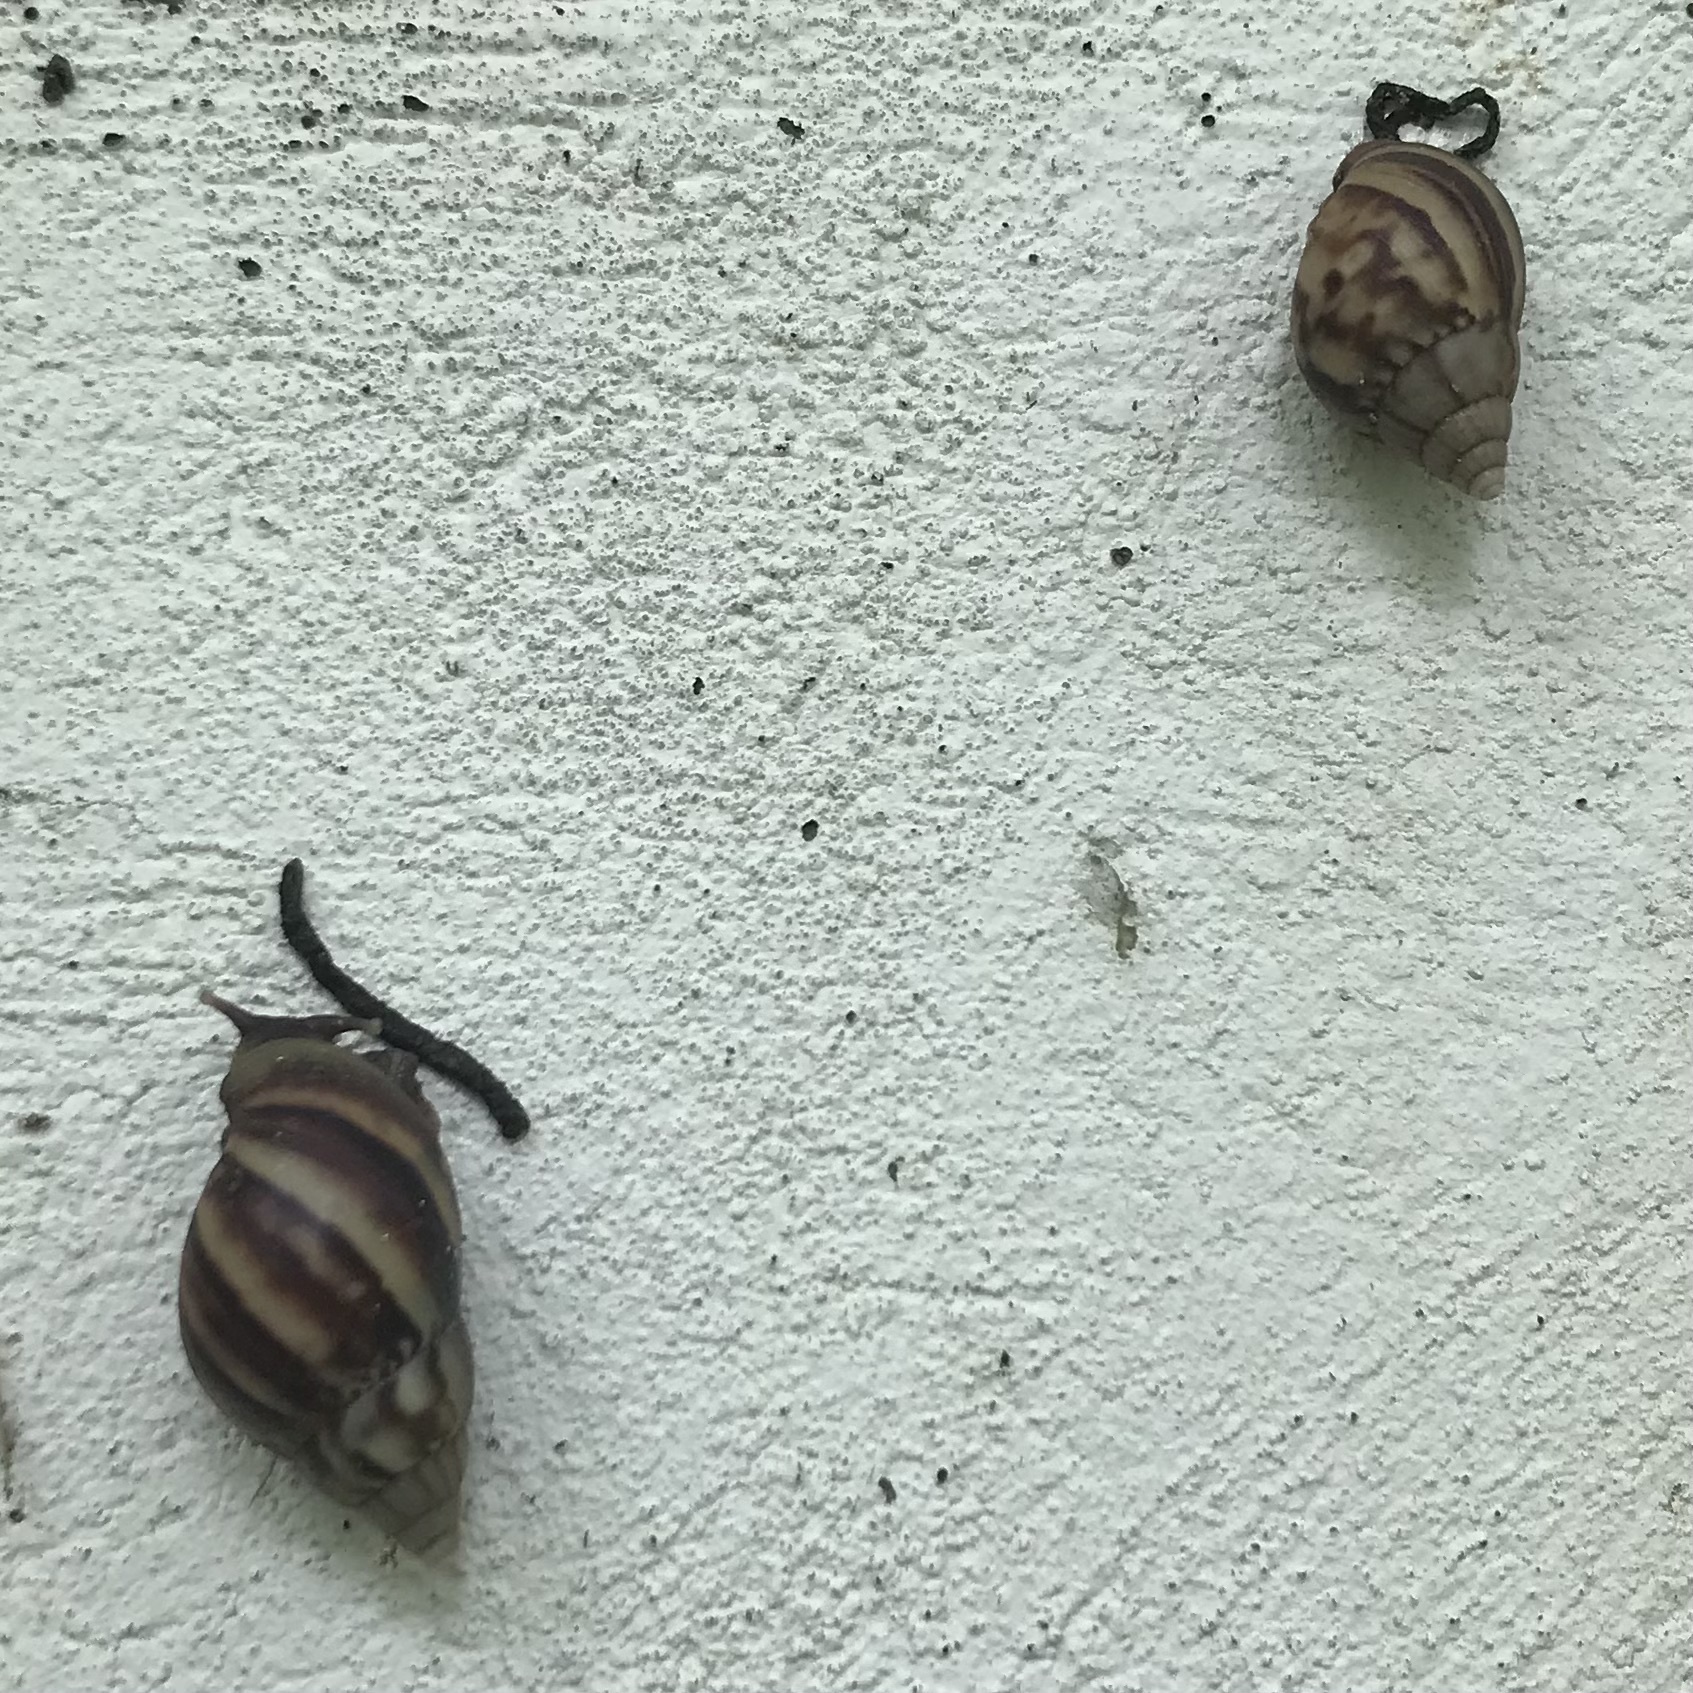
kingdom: Animalia
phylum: Mollusca
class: Gastropoda
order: Stylommatophora
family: Achatinidae
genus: Lissachatina
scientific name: Lissachatina fulica
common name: Giant african snail
